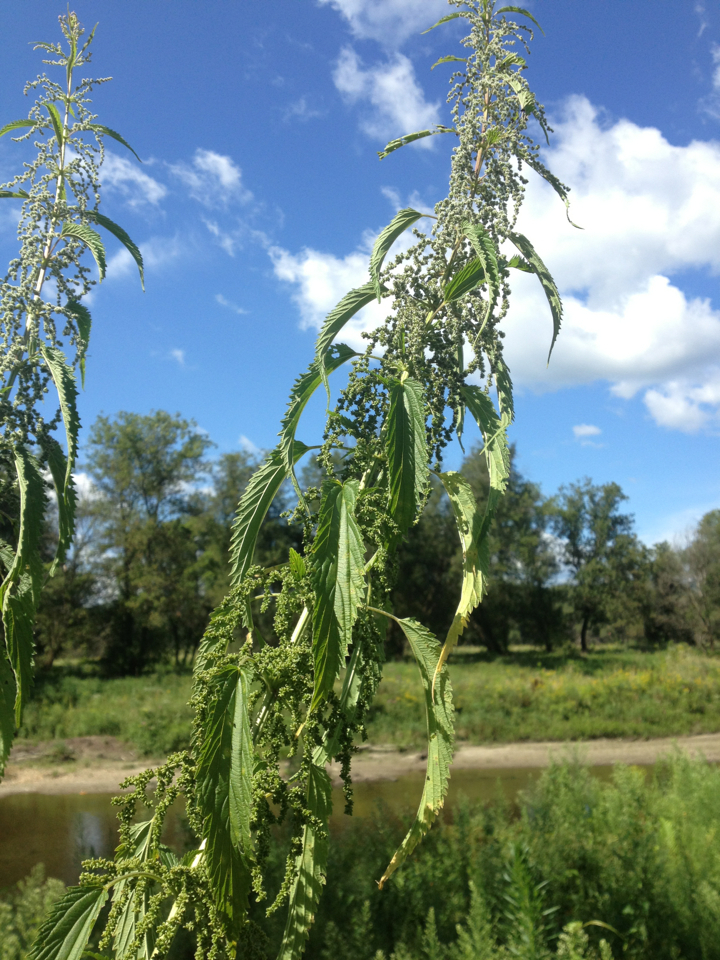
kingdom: Plantae
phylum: Tracheophyta
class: Magnoliopsida
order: Rosales
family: Urticaceae
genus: Urtica
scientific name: Urtica dioica
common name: Common nettle
